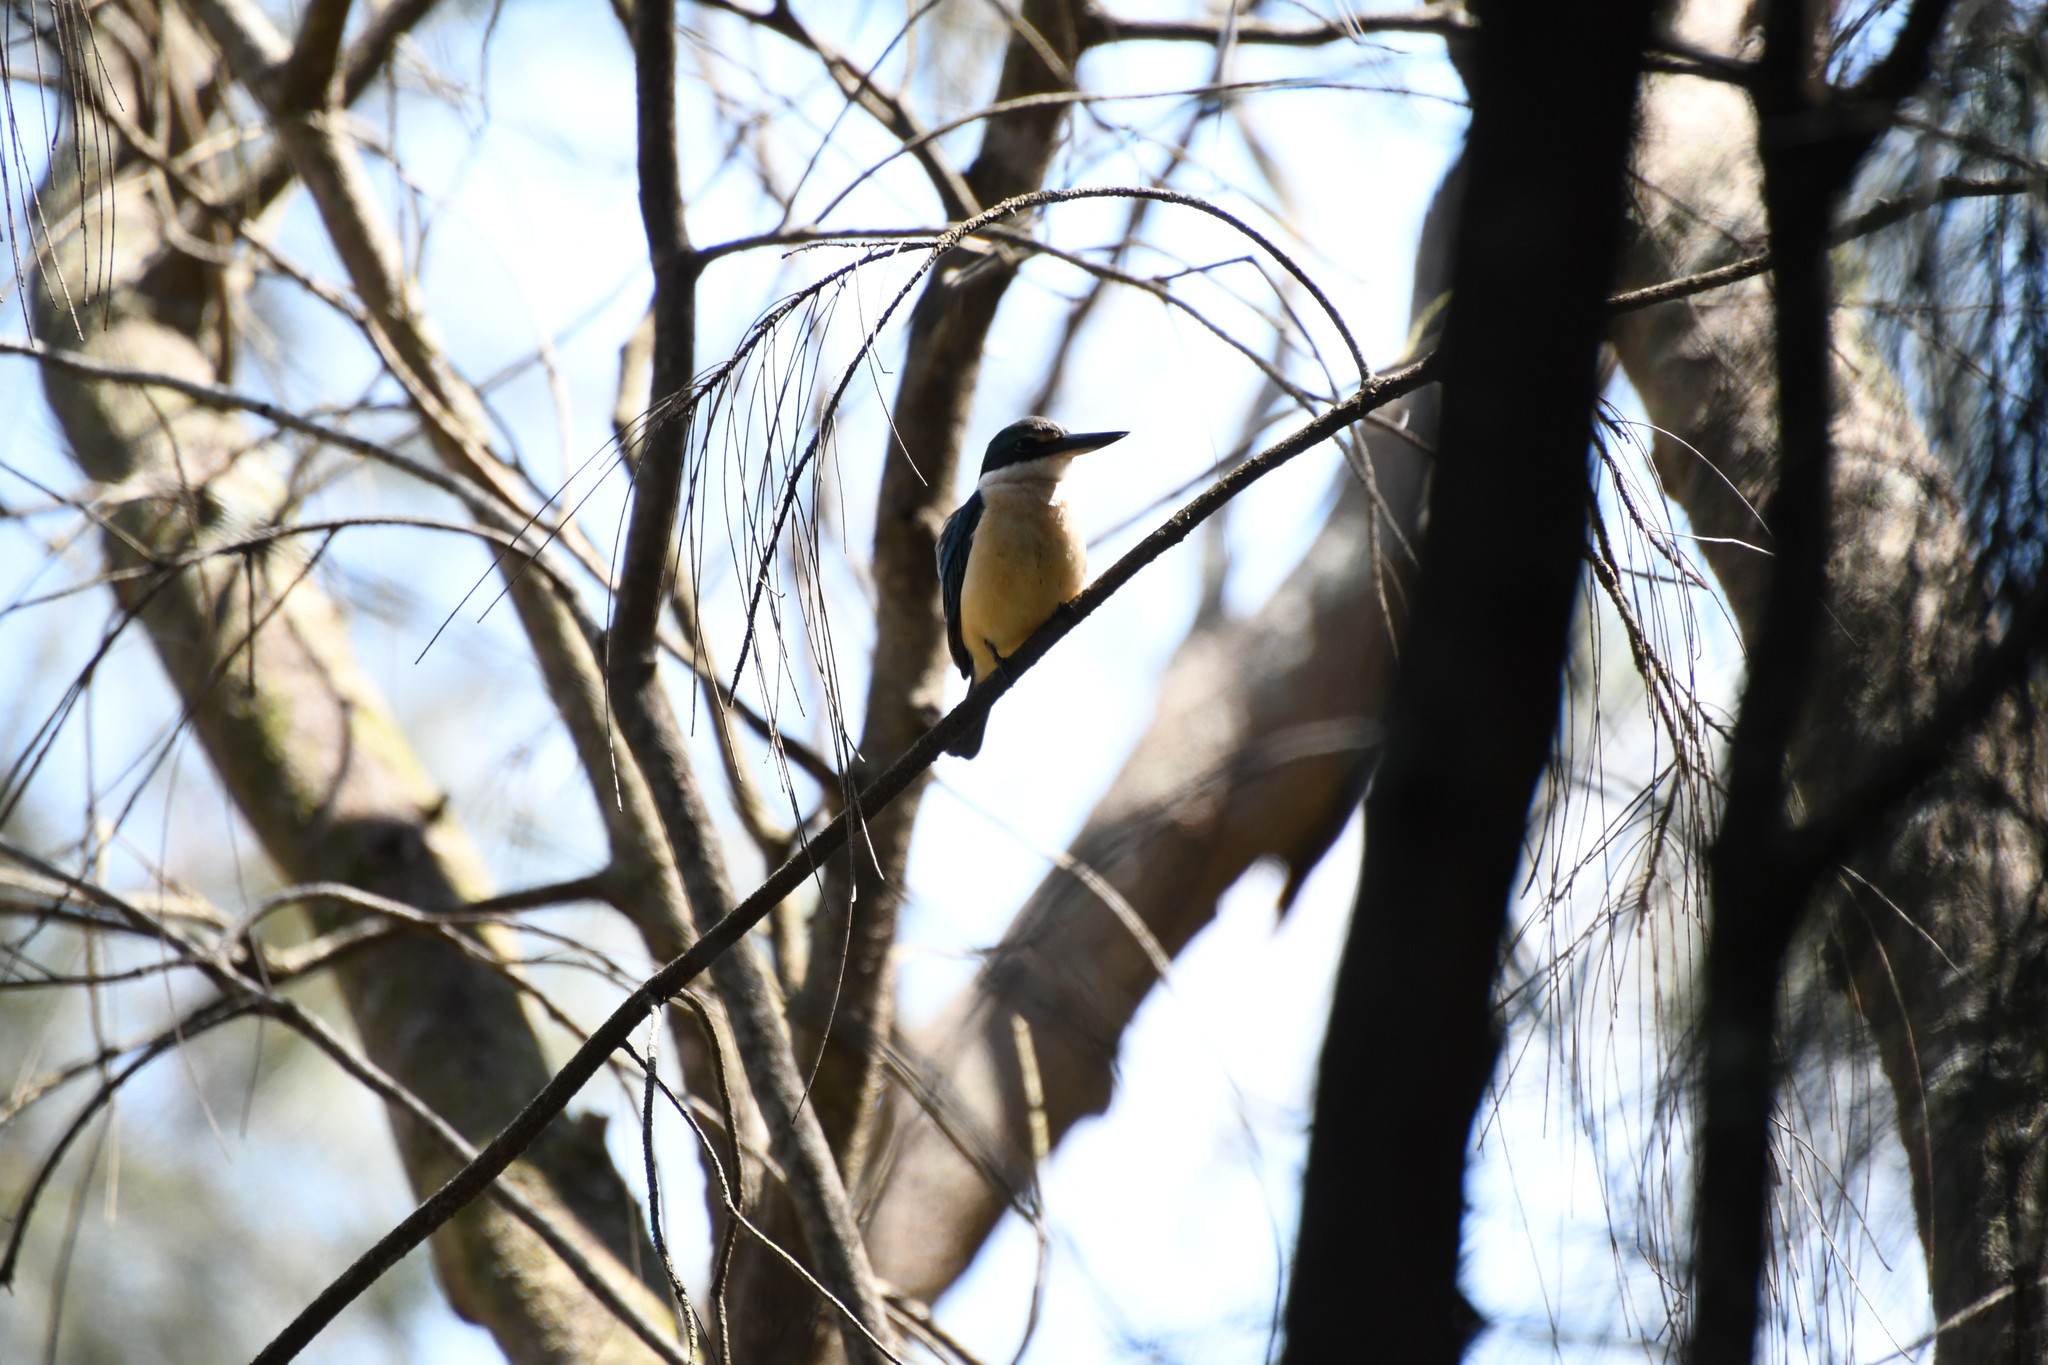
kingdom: Animalia
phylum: Chordata
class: Aves
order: Coraciiformes
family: Alcedinidae
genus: Todiramphus
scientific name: Todiramphus sanctus
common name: Sacred kingfisher
